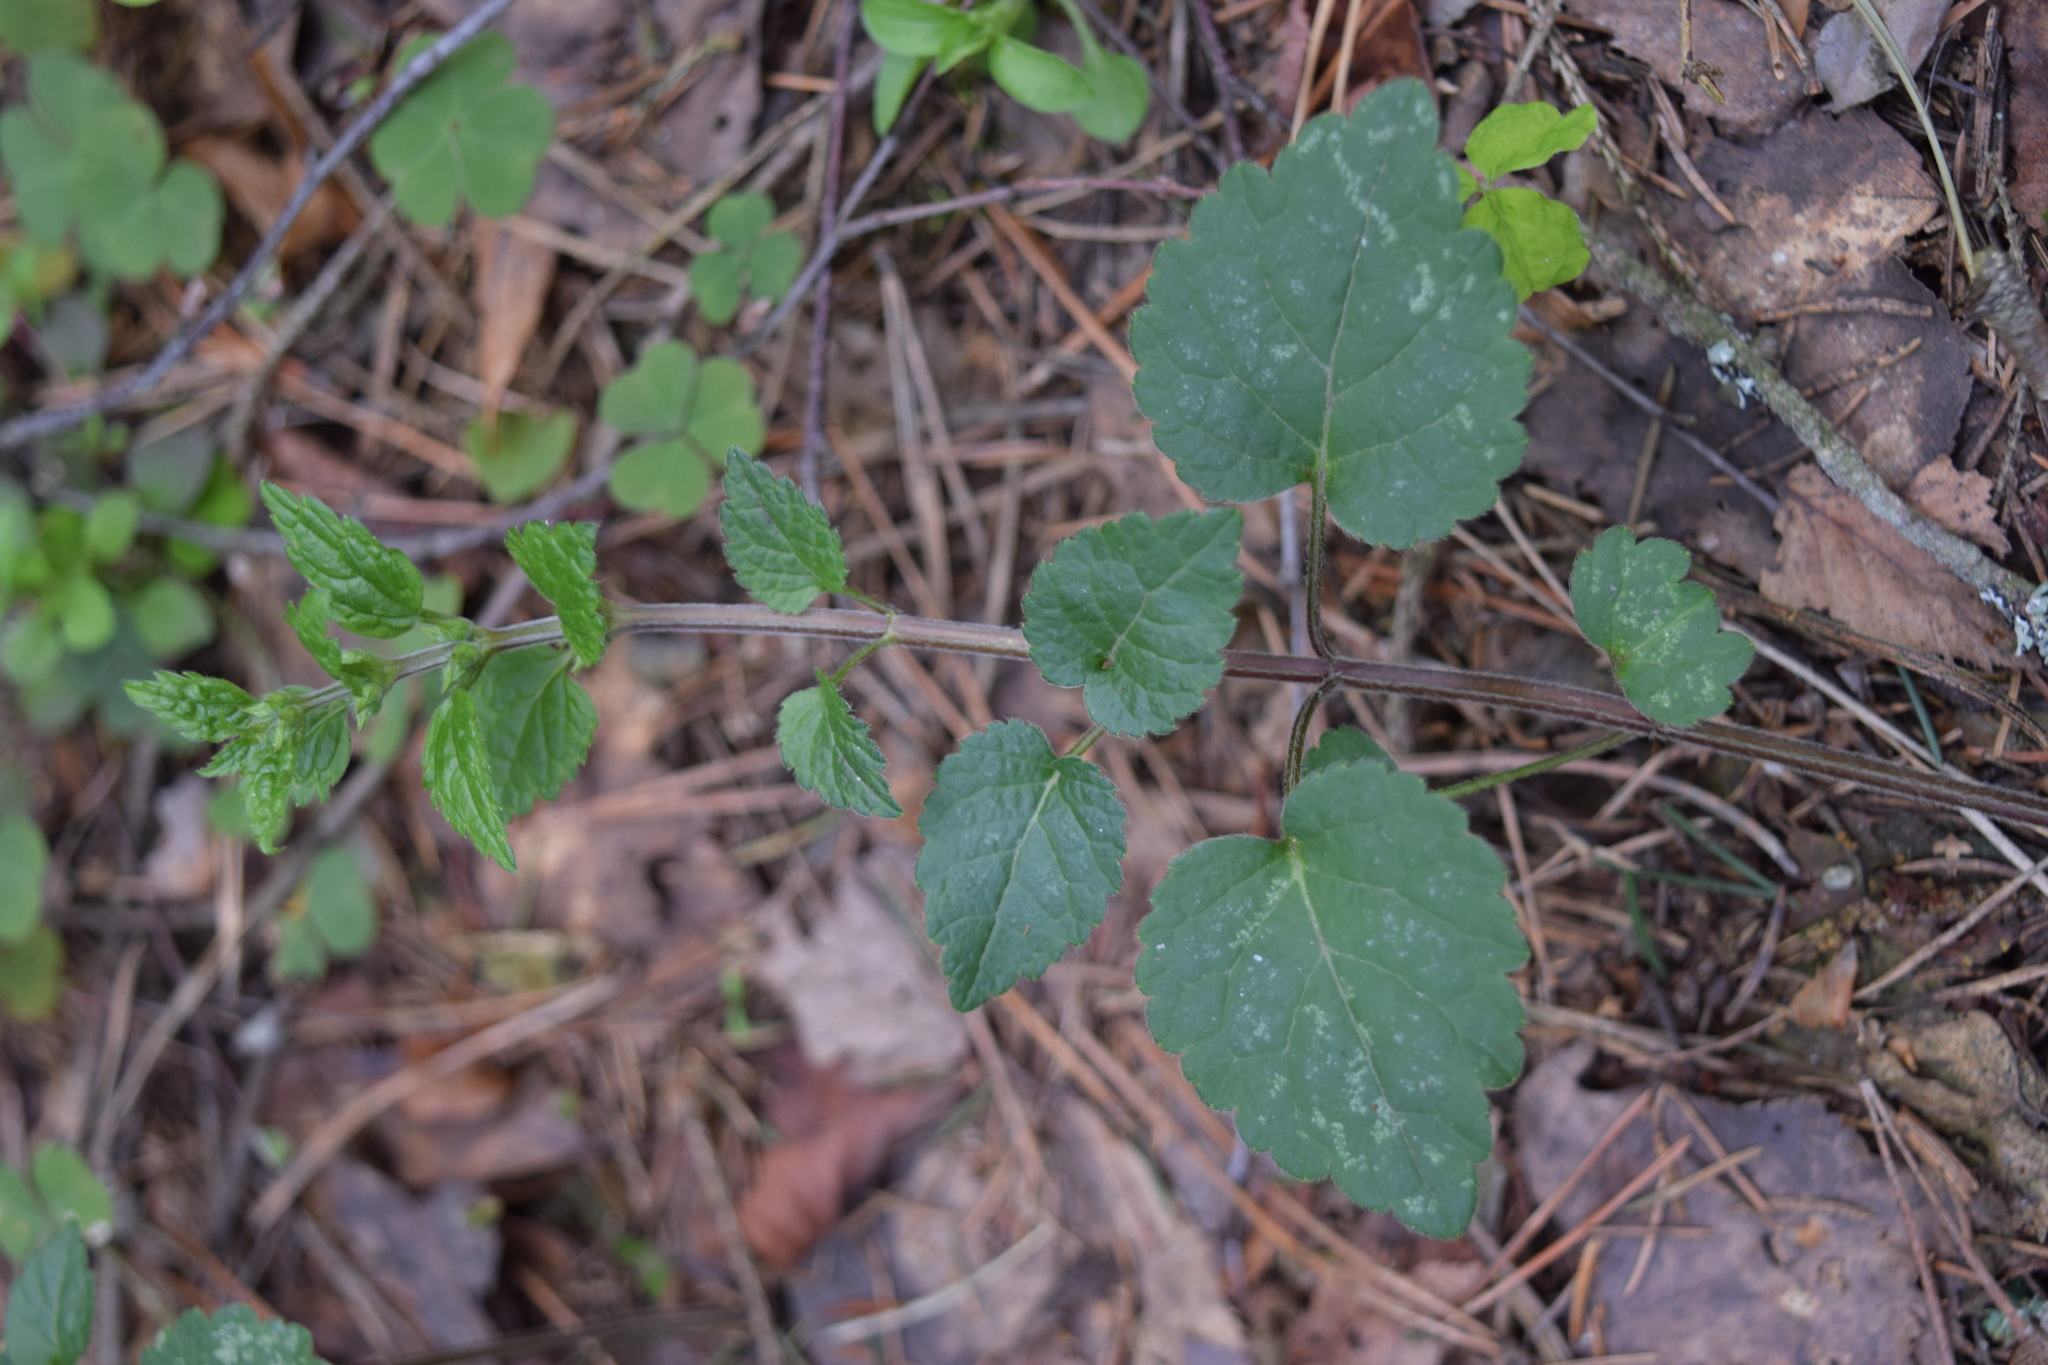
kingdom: Plantae
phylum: Tracheophyta
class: Magnoliopsida
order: Lamiales
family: Lamiaceae
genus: Lamium
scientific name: Lamium galeobdolon
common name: Yellow archangel
